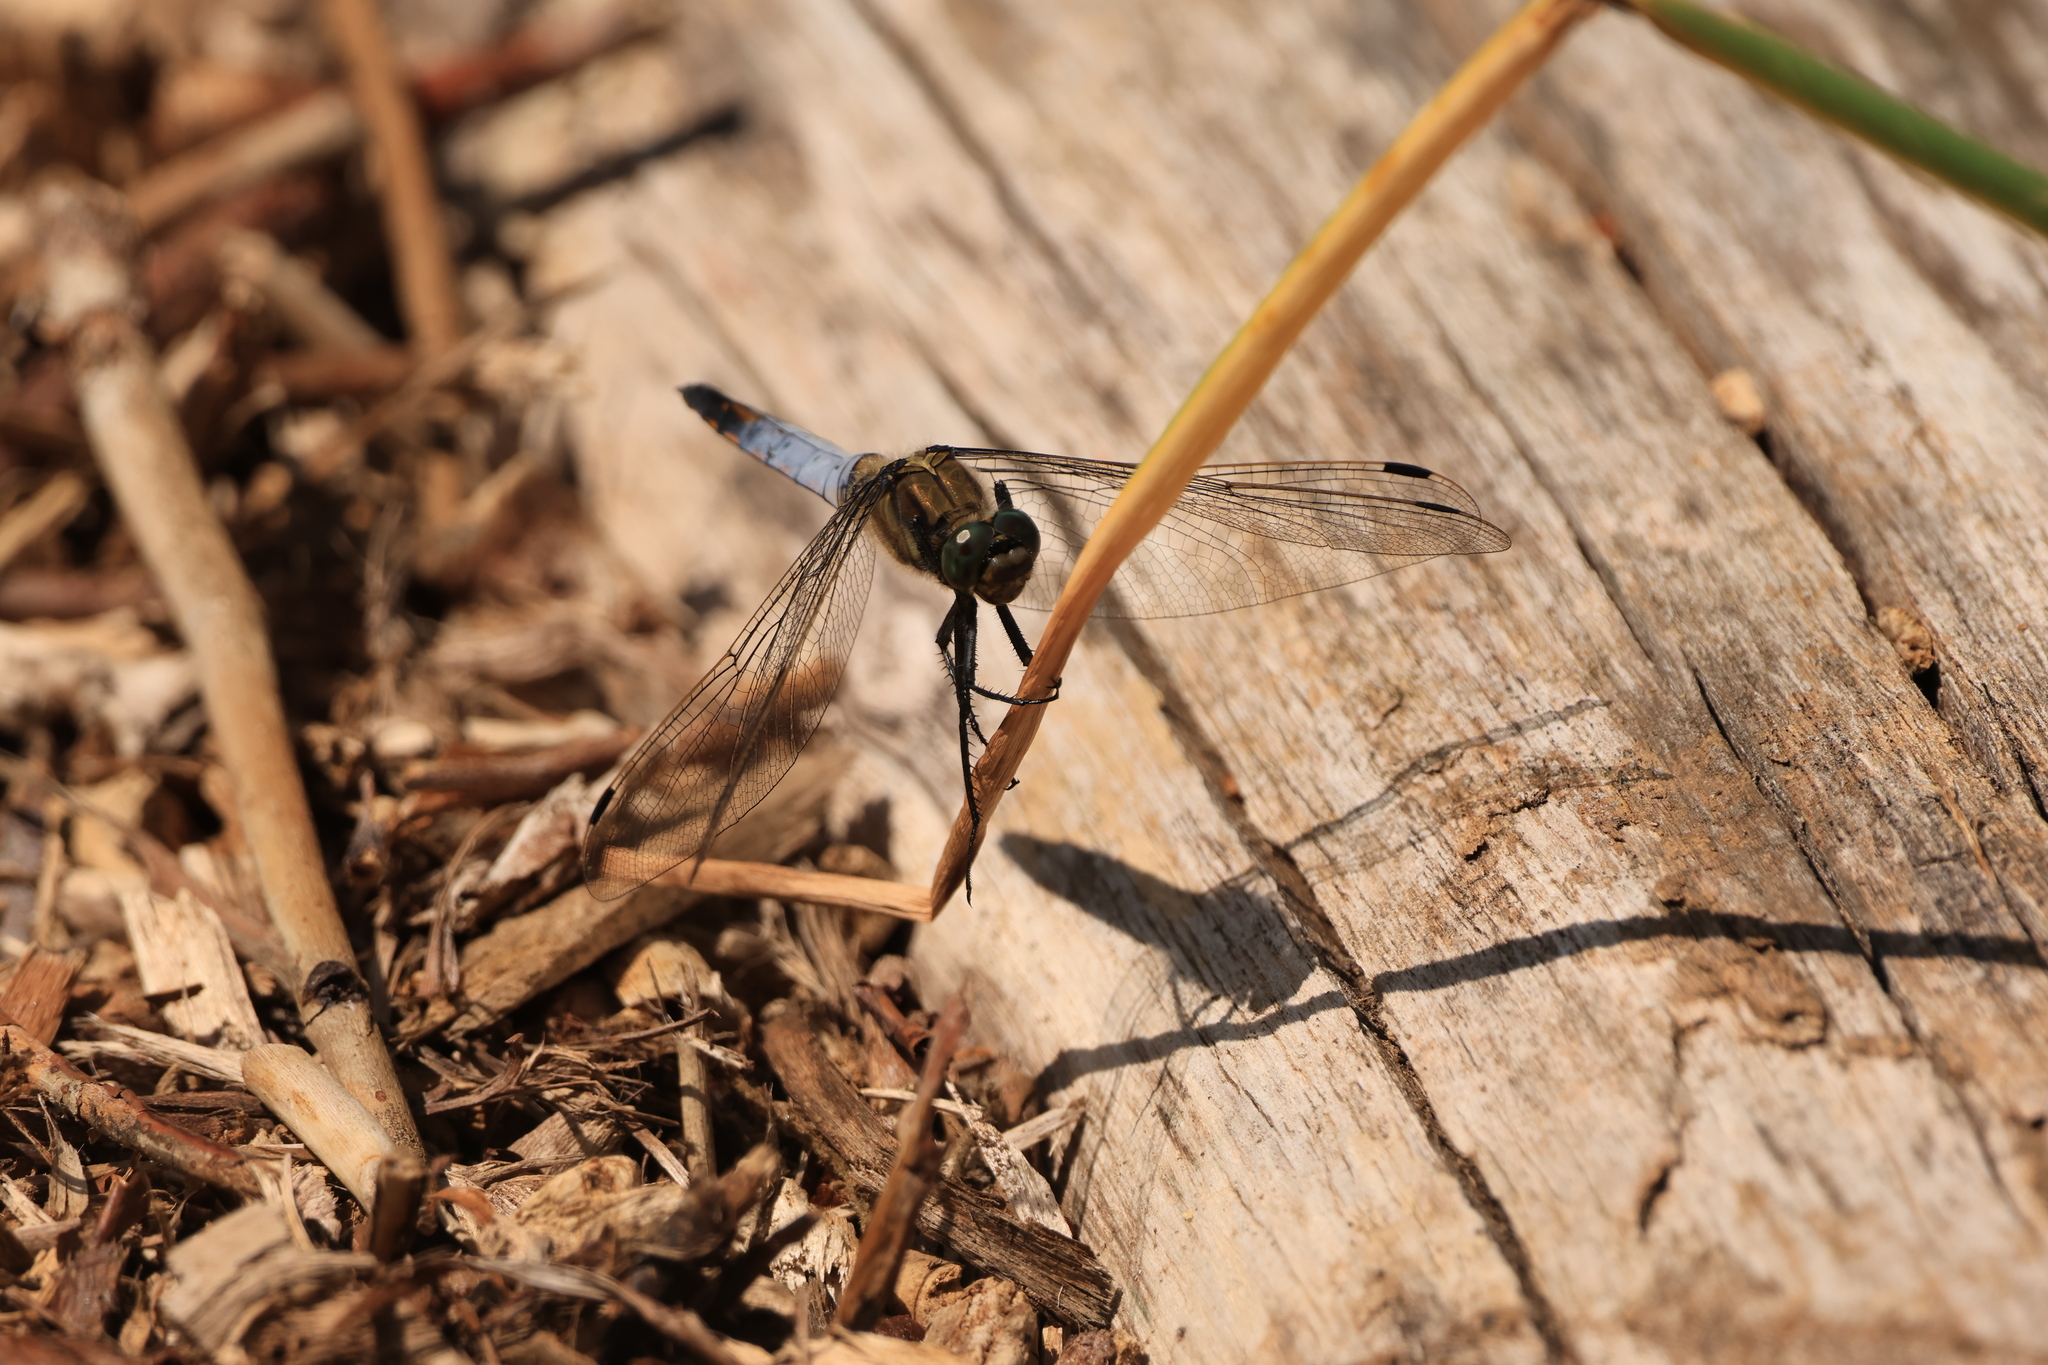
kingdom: Animalia
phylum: Arthropoda
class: Insecta
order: Odonata
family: Libellulidae
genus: Orthetrum
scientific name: Orthetrum cancellatum
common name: Black-tailed skimmer
